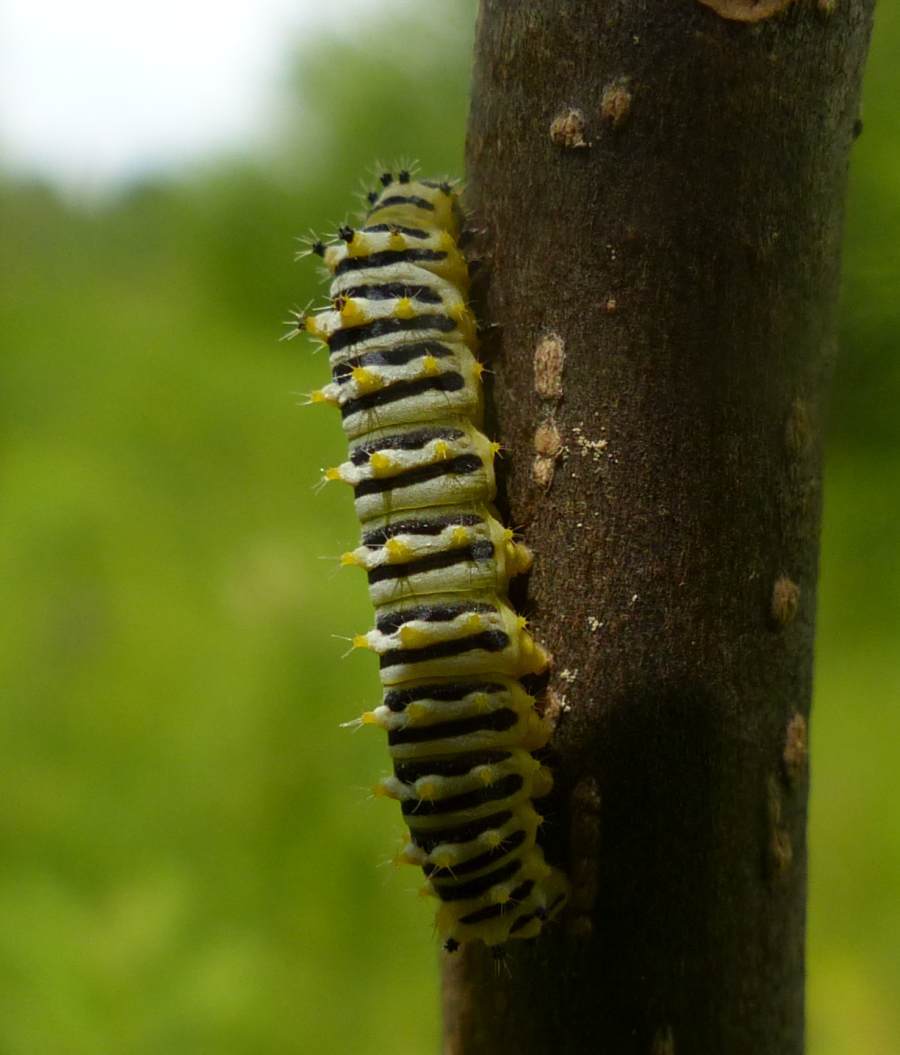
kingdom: Animalia
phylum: Arthropoda
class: Insecta
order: Lepidoptera
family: Saturniidae
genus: Callosamia
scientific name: Callosamia promethea
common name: Promethea silkmoth
